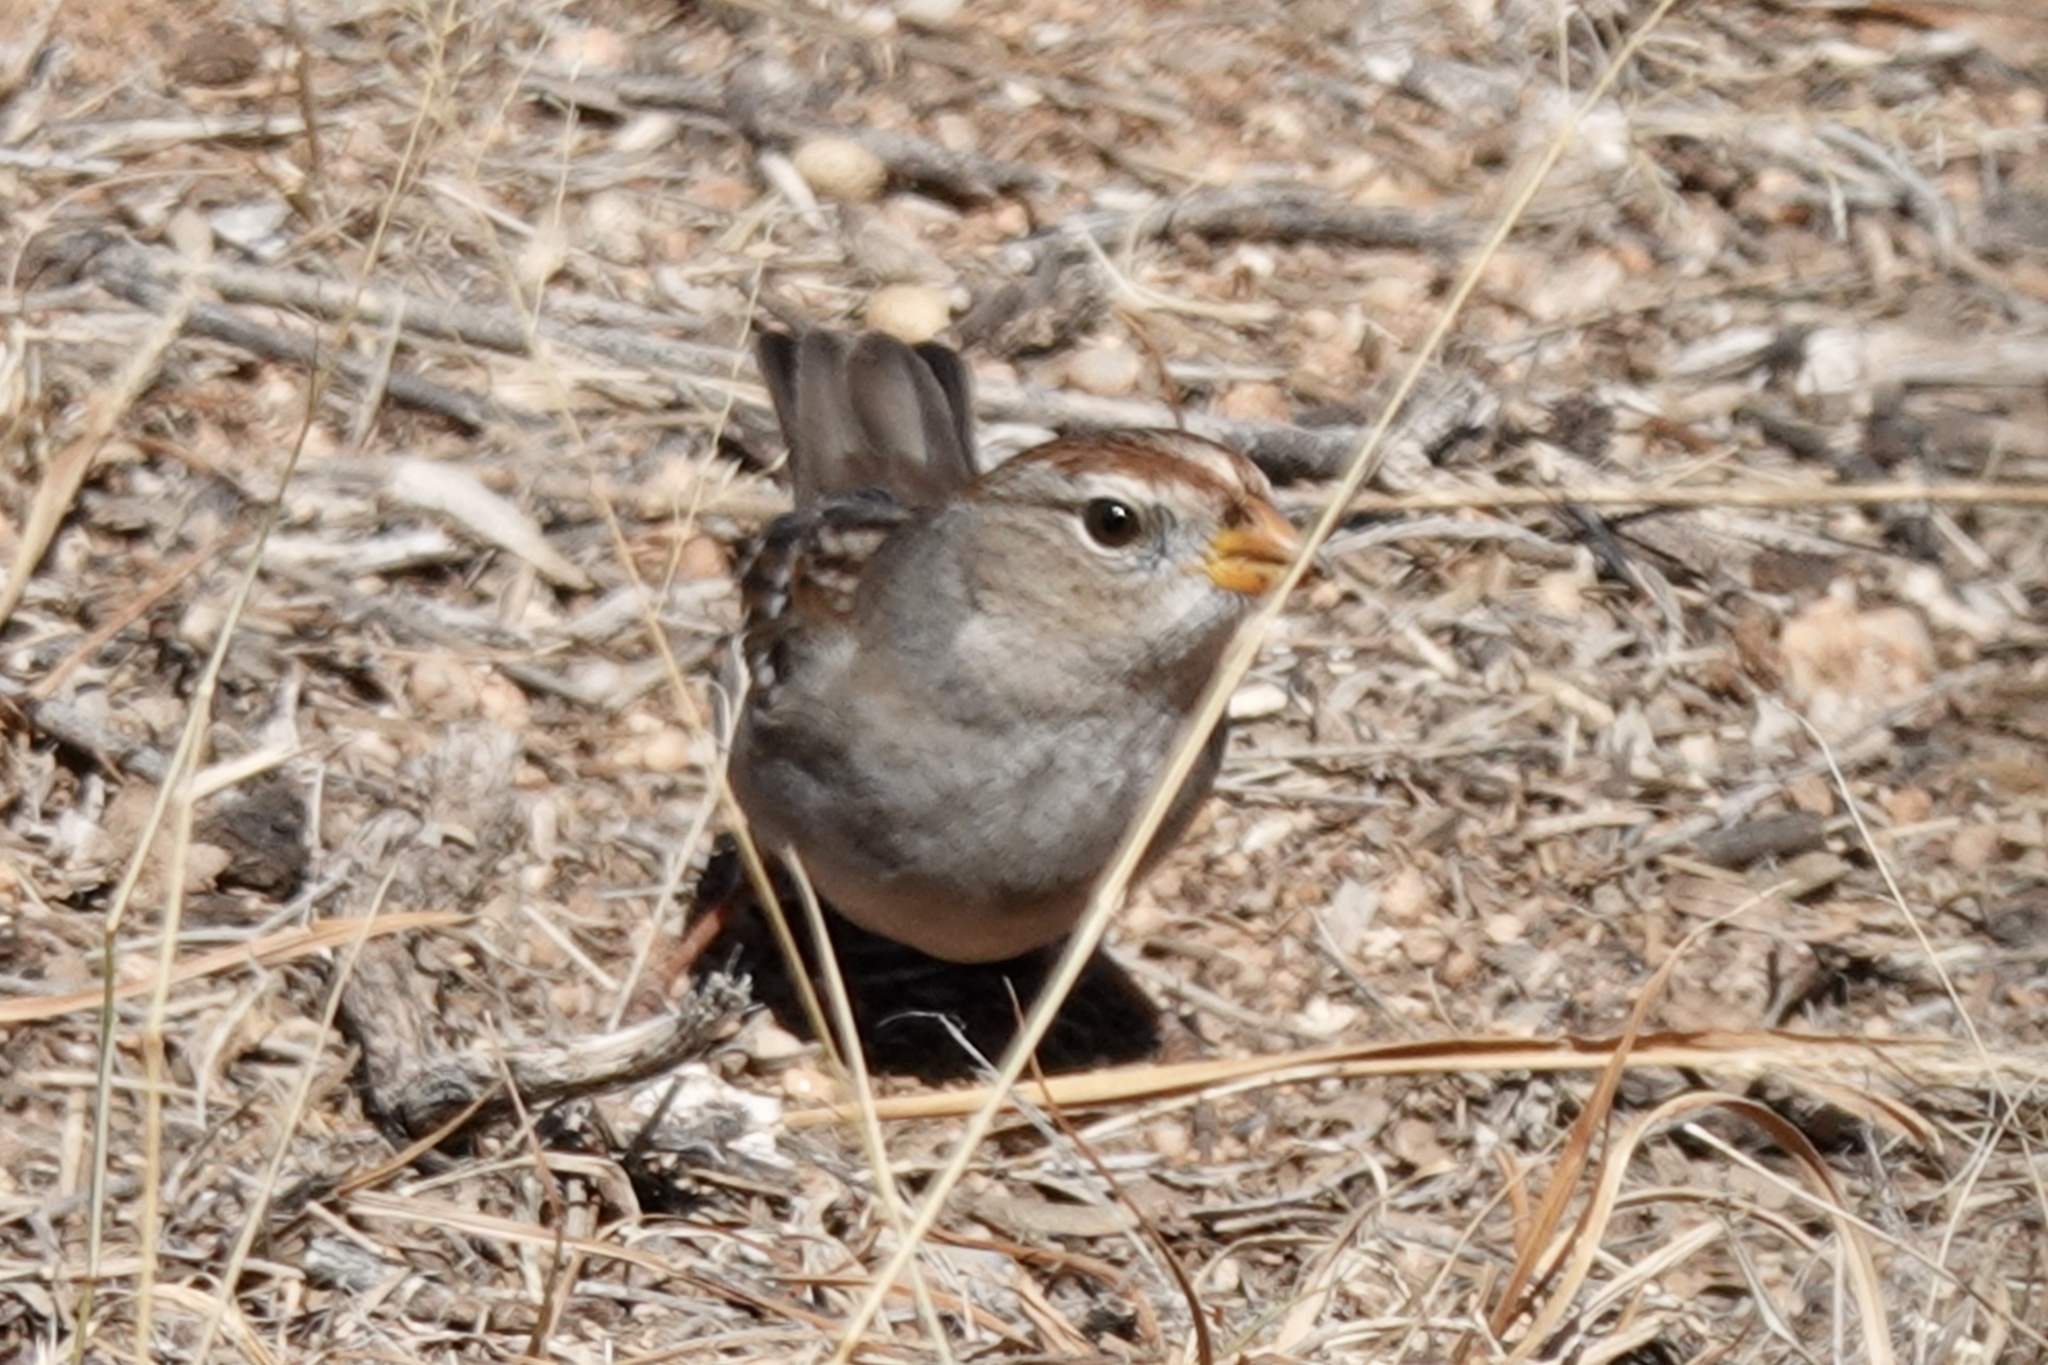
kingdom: Animalia
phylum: Chordata
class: Aves
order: Passeriformes
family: Passerellidae
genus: Zonotrichia
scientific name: Zonotrichia leucophrys
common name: White-crowned sparrow
